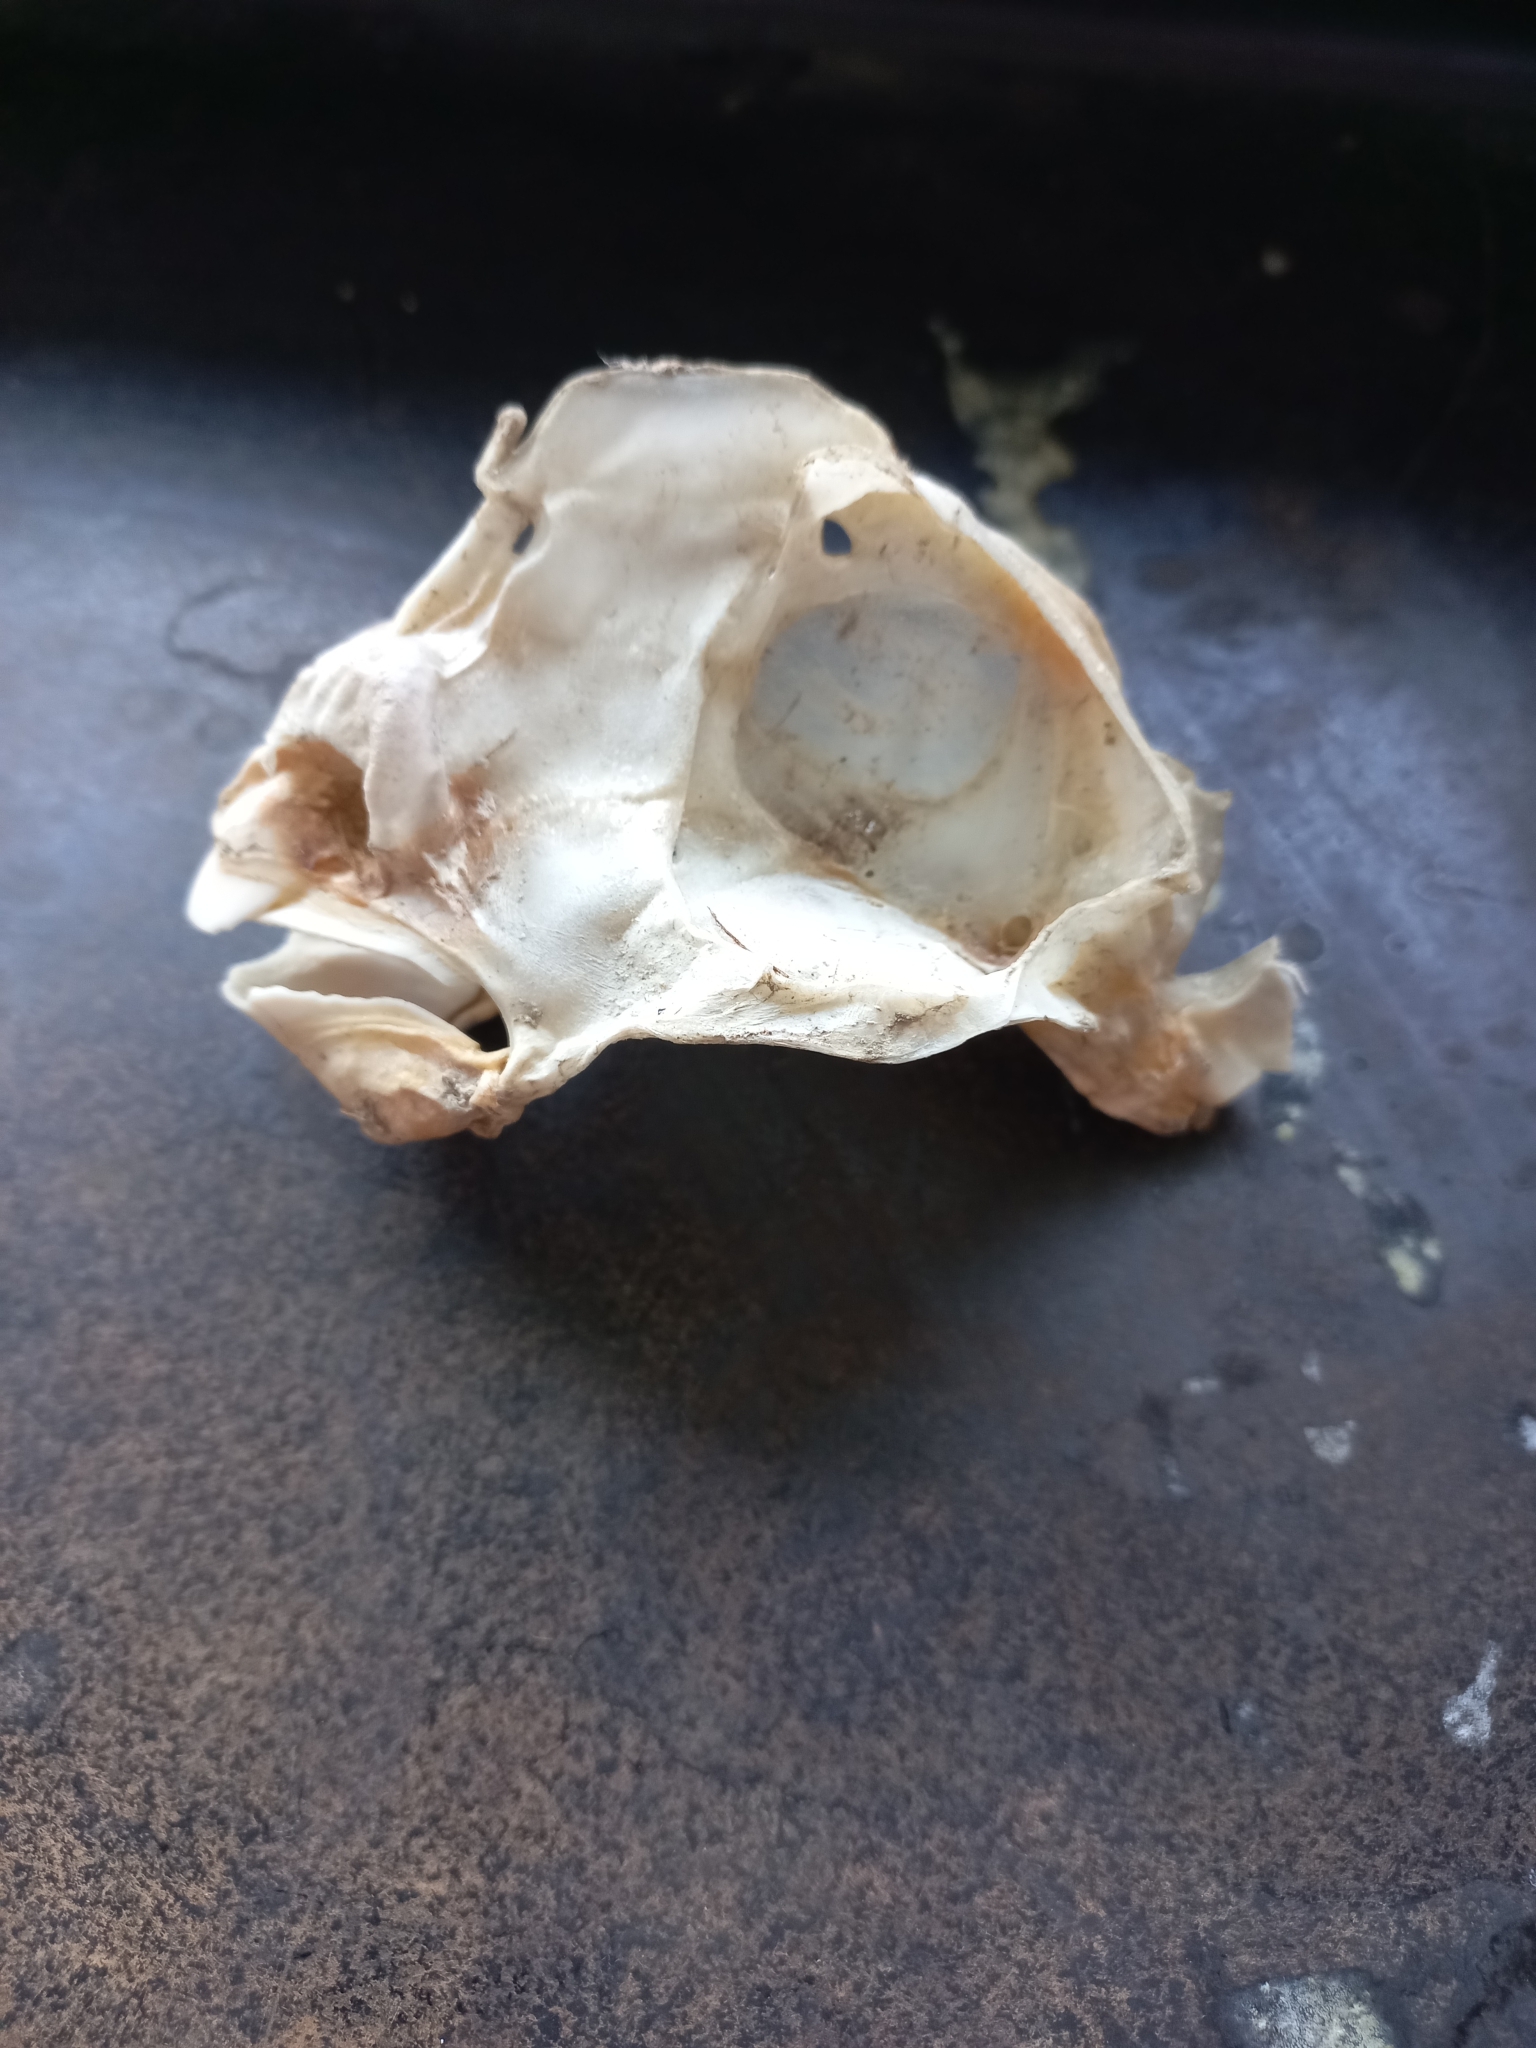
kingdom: Animalia
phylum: Chordata
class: Holocephali
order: Chimaeriformes
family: Callorhinchidae
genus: Callorhinchus
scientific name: Callorhinchus milii
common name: Elephant fish
